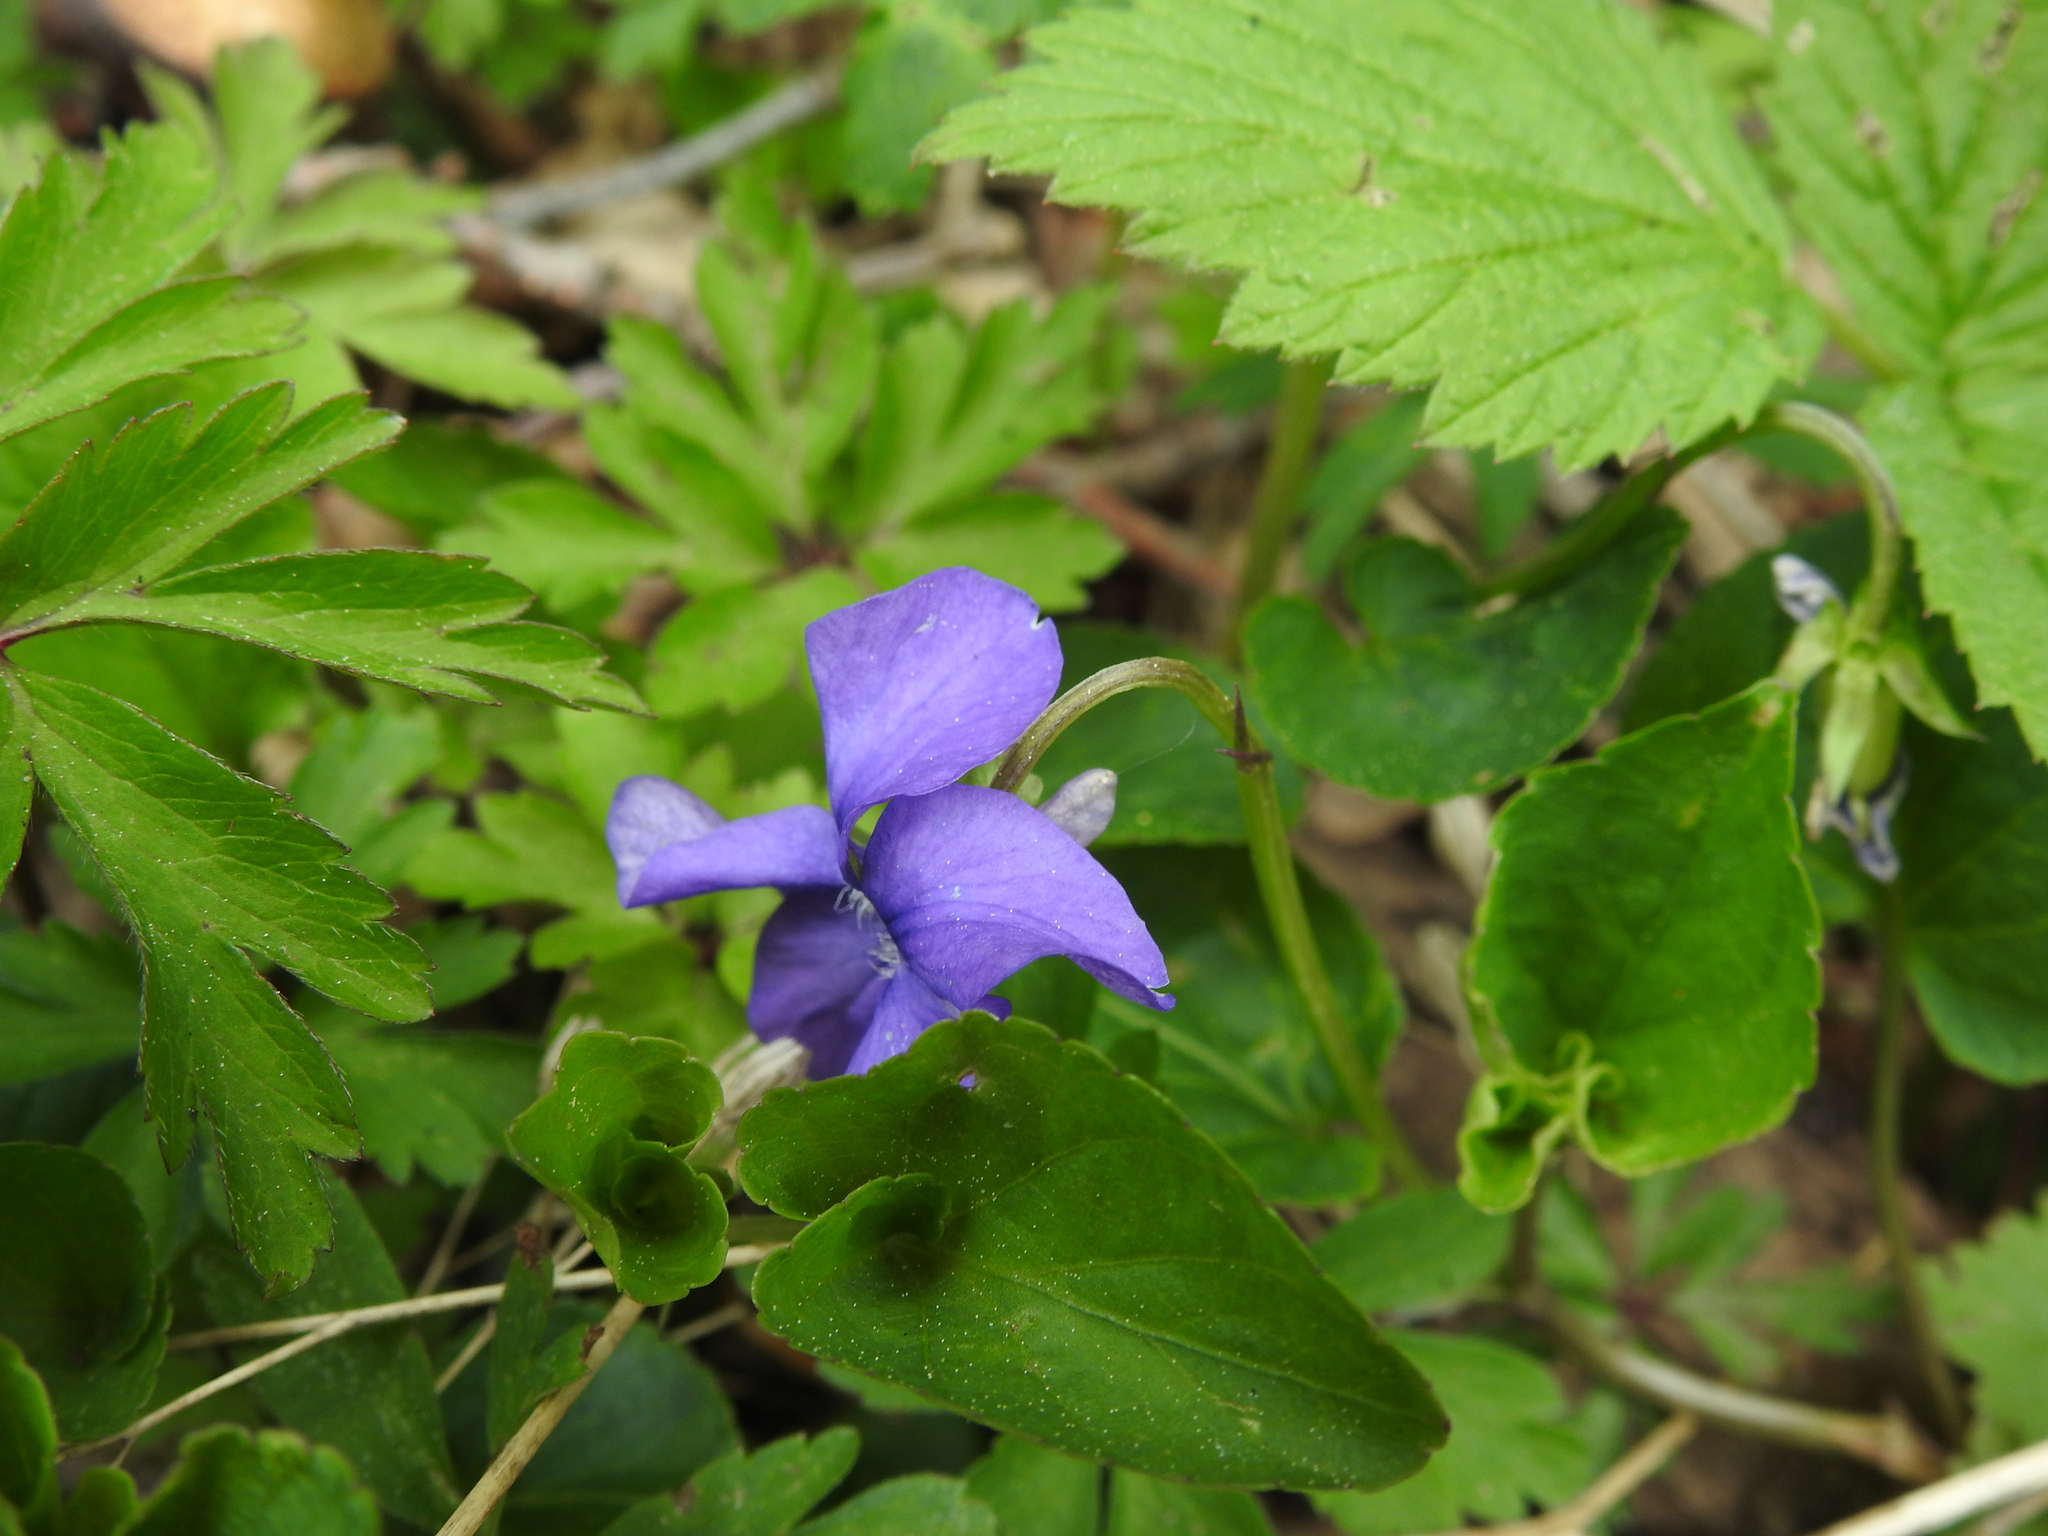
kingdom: Plantae
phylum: Tracheophyta
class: Magnoliopsida
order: Malpighiales
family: Violaceae
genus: Viola
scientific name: Viola riviniana
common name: Common dog-violet
